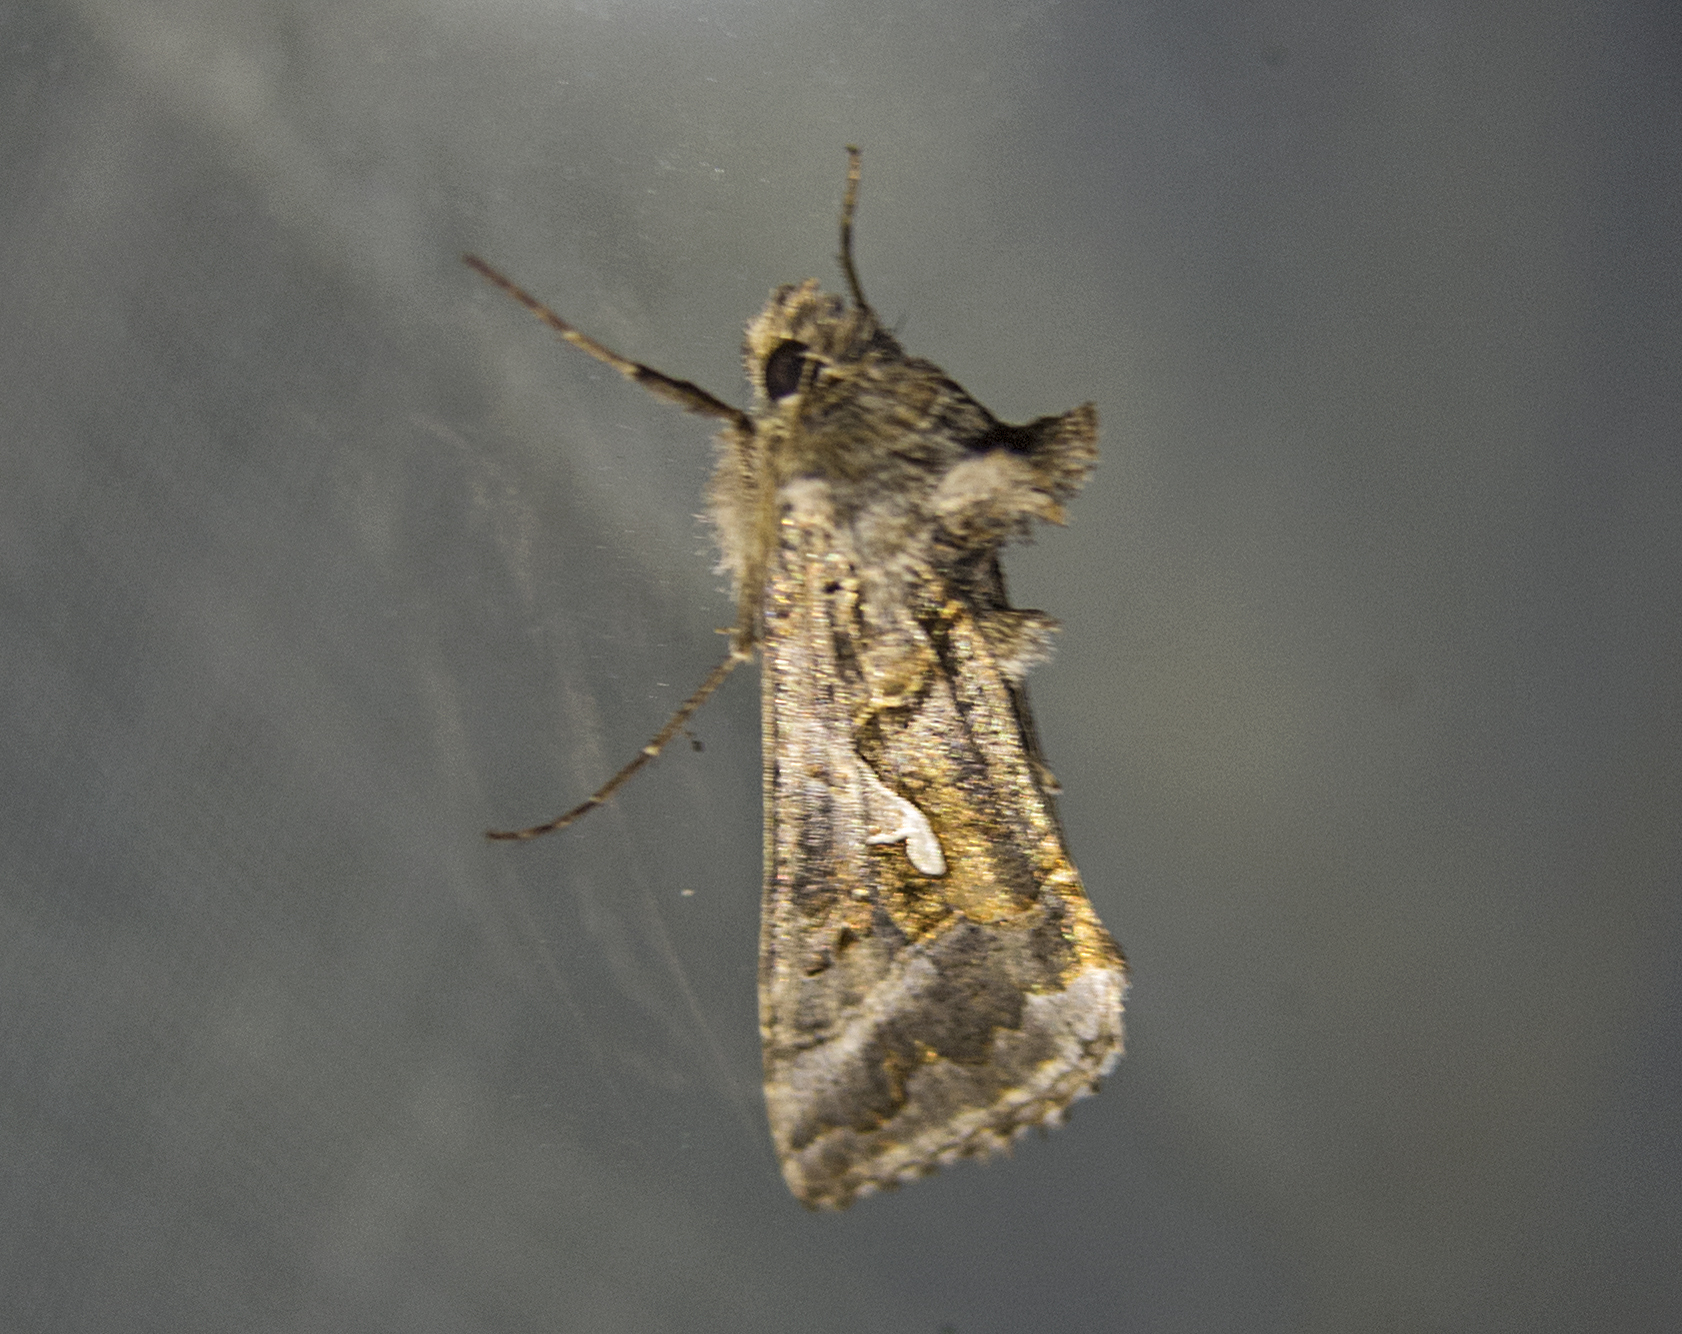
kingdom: Animalia
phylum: Arthropoda
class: Insecta
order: Lepidoptera
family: Noctuidae
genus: Autographa
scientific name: Autographa gamma
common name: Silver y
